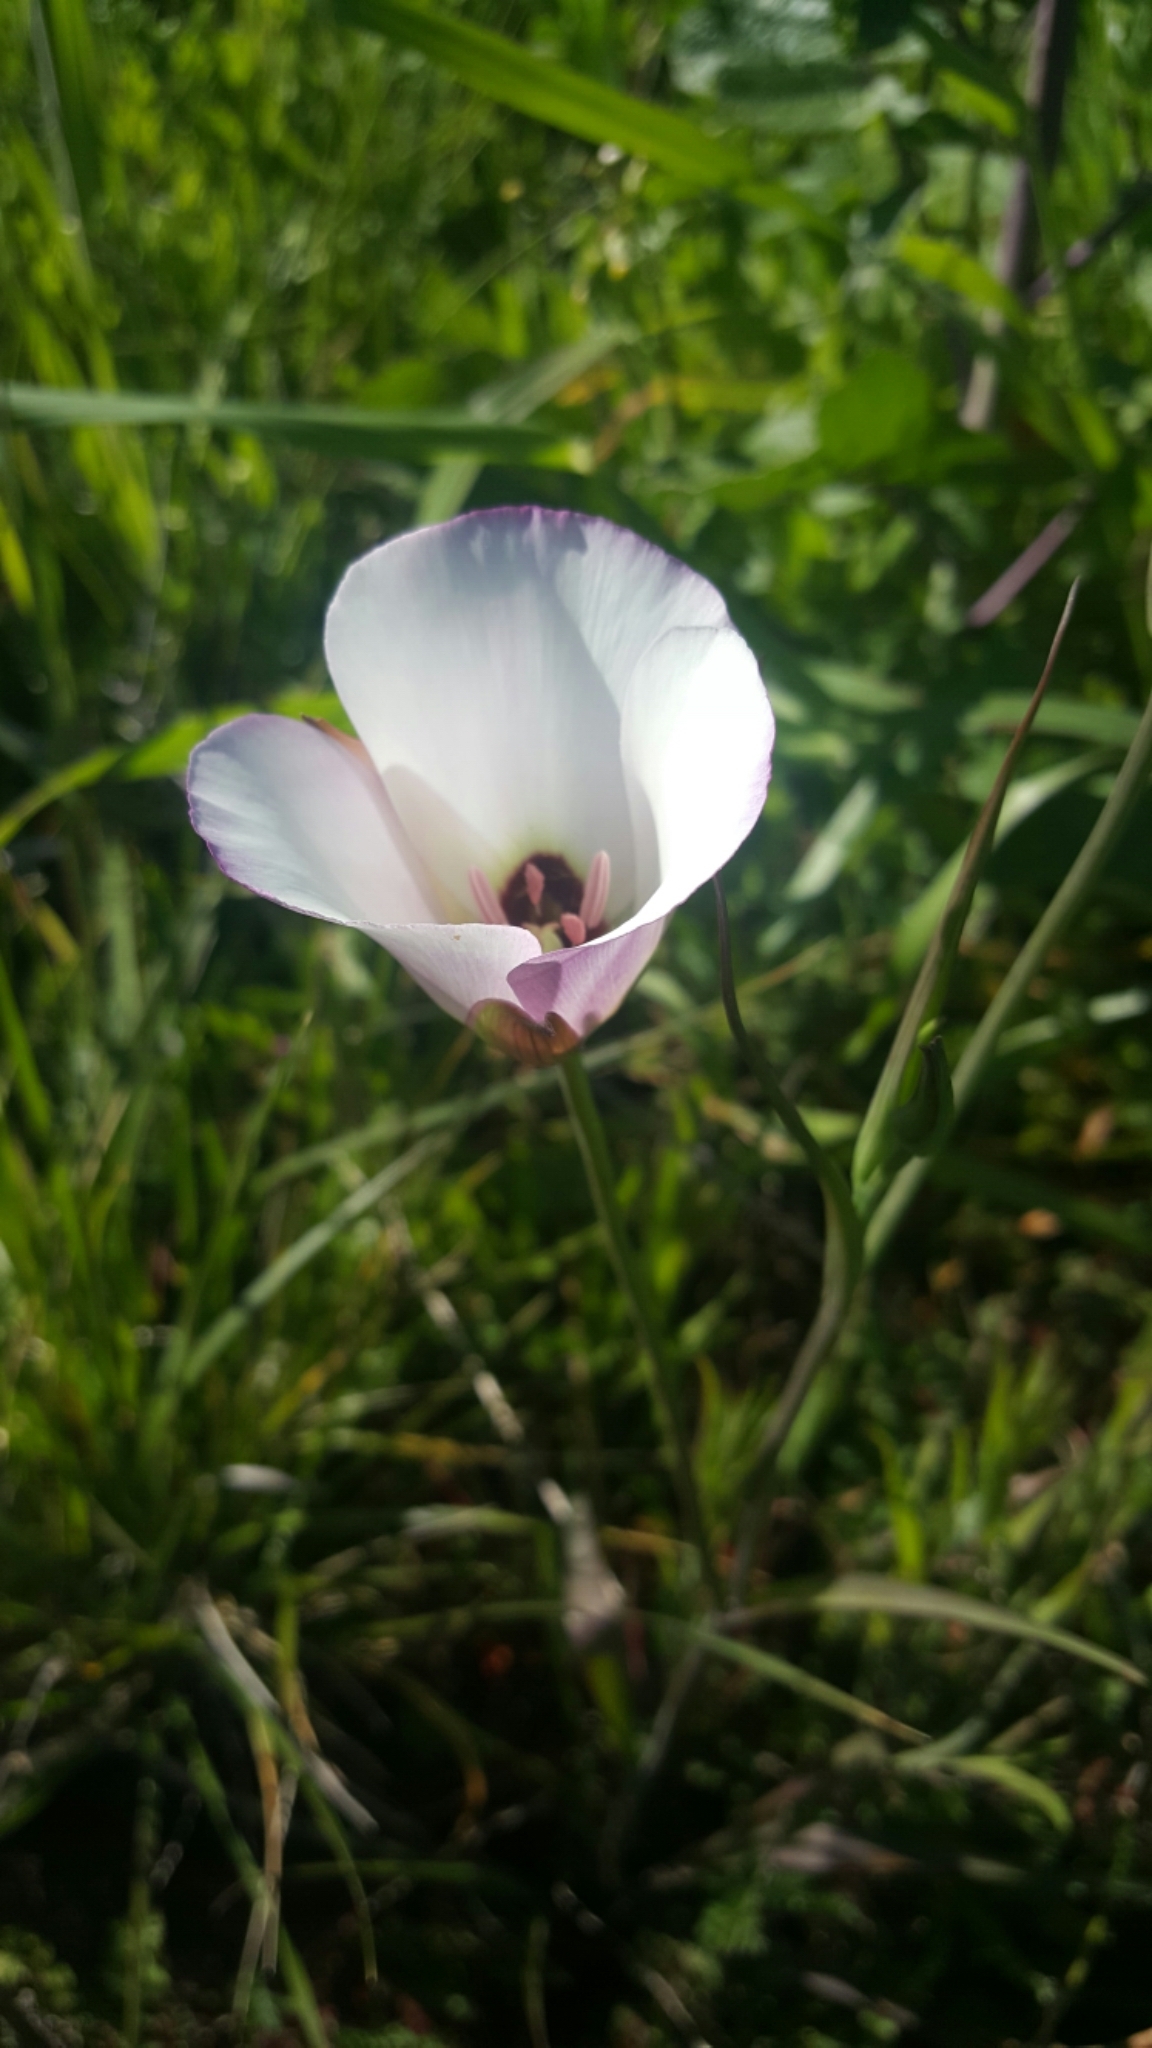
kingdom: Plantae
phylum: Tracheophyta
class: Liliopsida
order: Liliales
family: Liliaceae
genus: Calochortus
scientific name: Calochortus catalinae
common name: Catalina mariposa-lily
